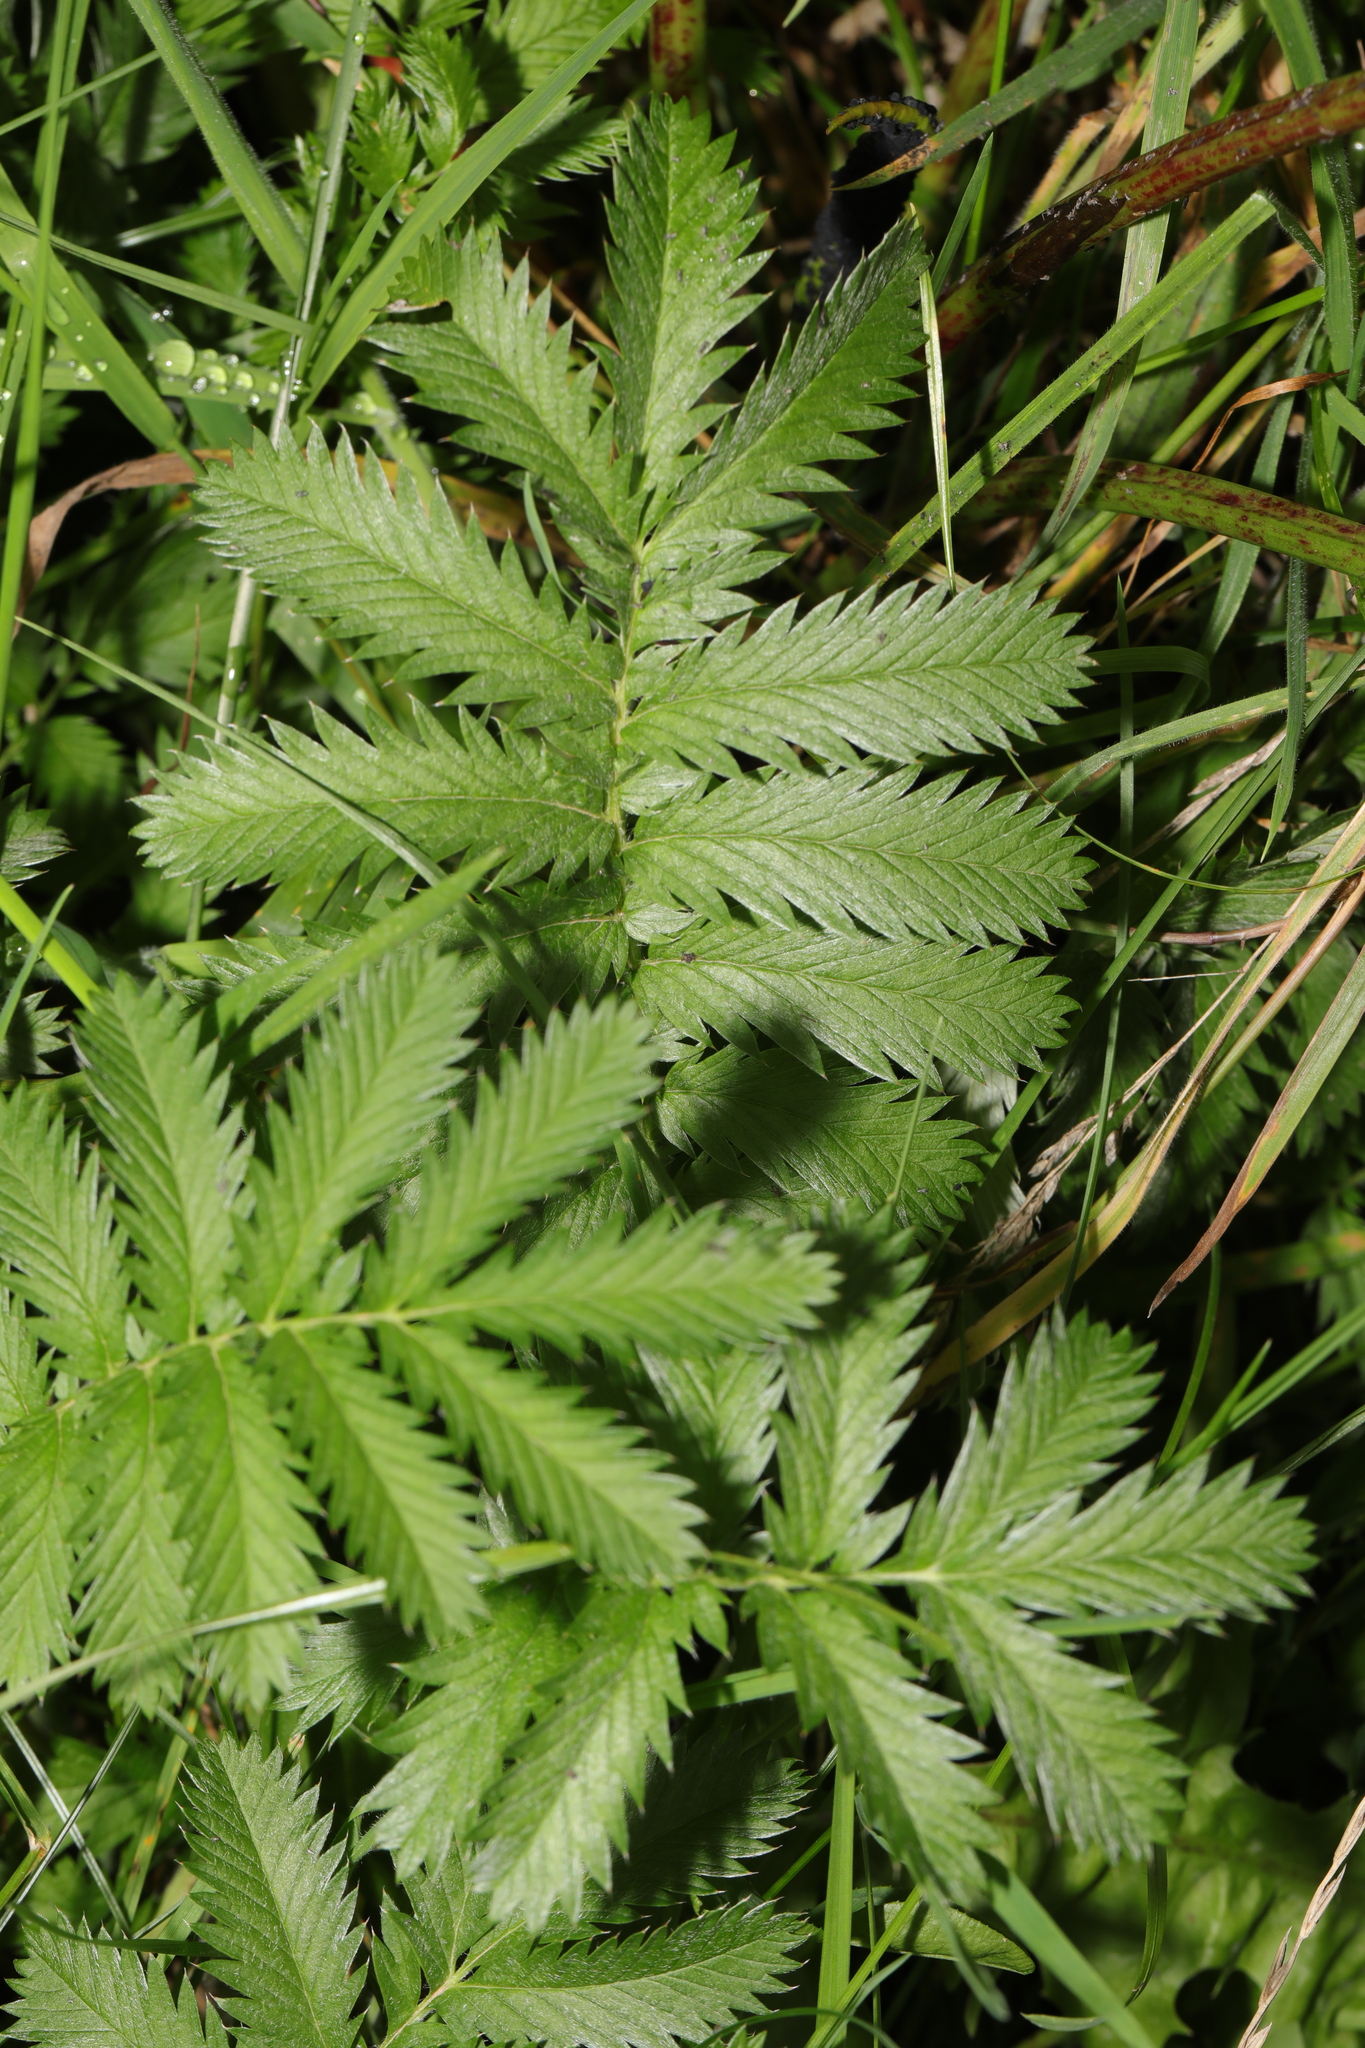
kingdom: Plantae
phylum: Tracheophyta
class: Magnoliopsida
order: Rosales
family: Rosaceae
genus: Argentina
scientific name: Argentina anserina
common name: Common silverweed
